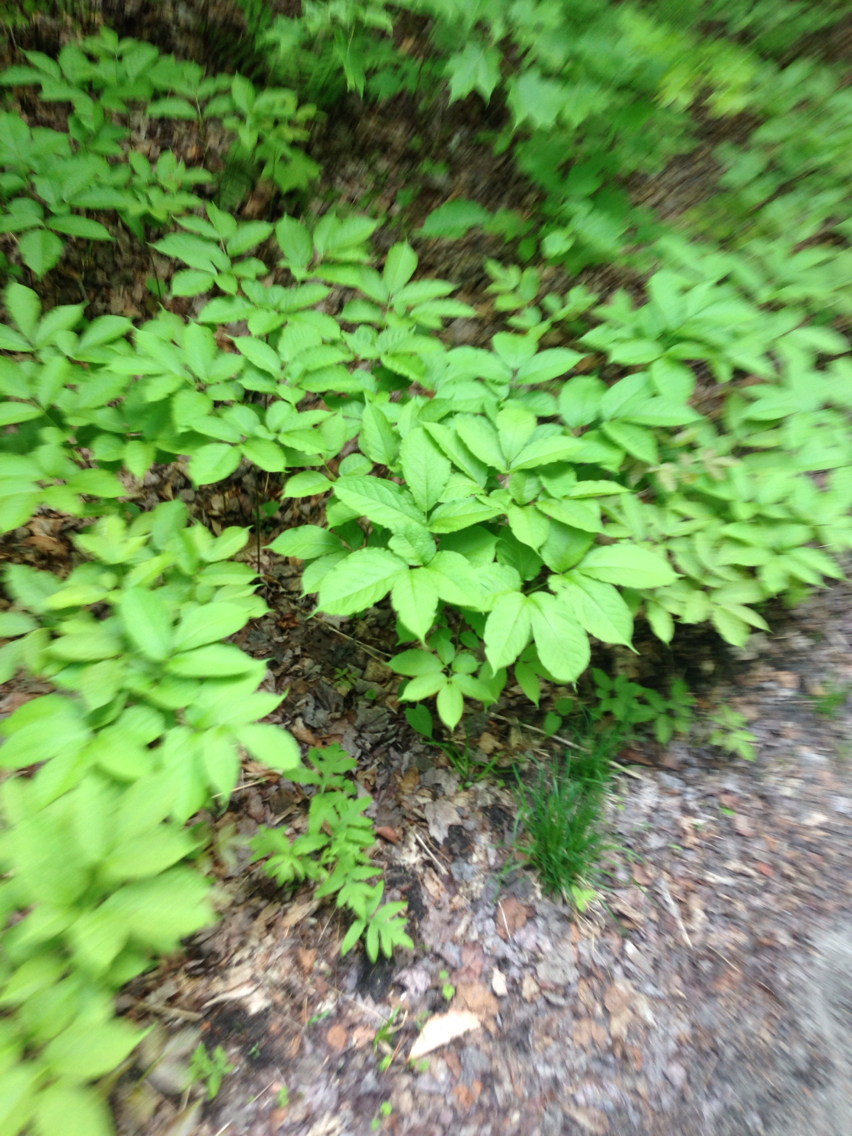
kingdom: Plantae
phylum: Tracheophyta
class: Magnoliopsida
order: Apiales
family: Araliaceae
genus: Aralia
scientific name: Aralia nudicaulis
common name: Wild sarsaparilla
